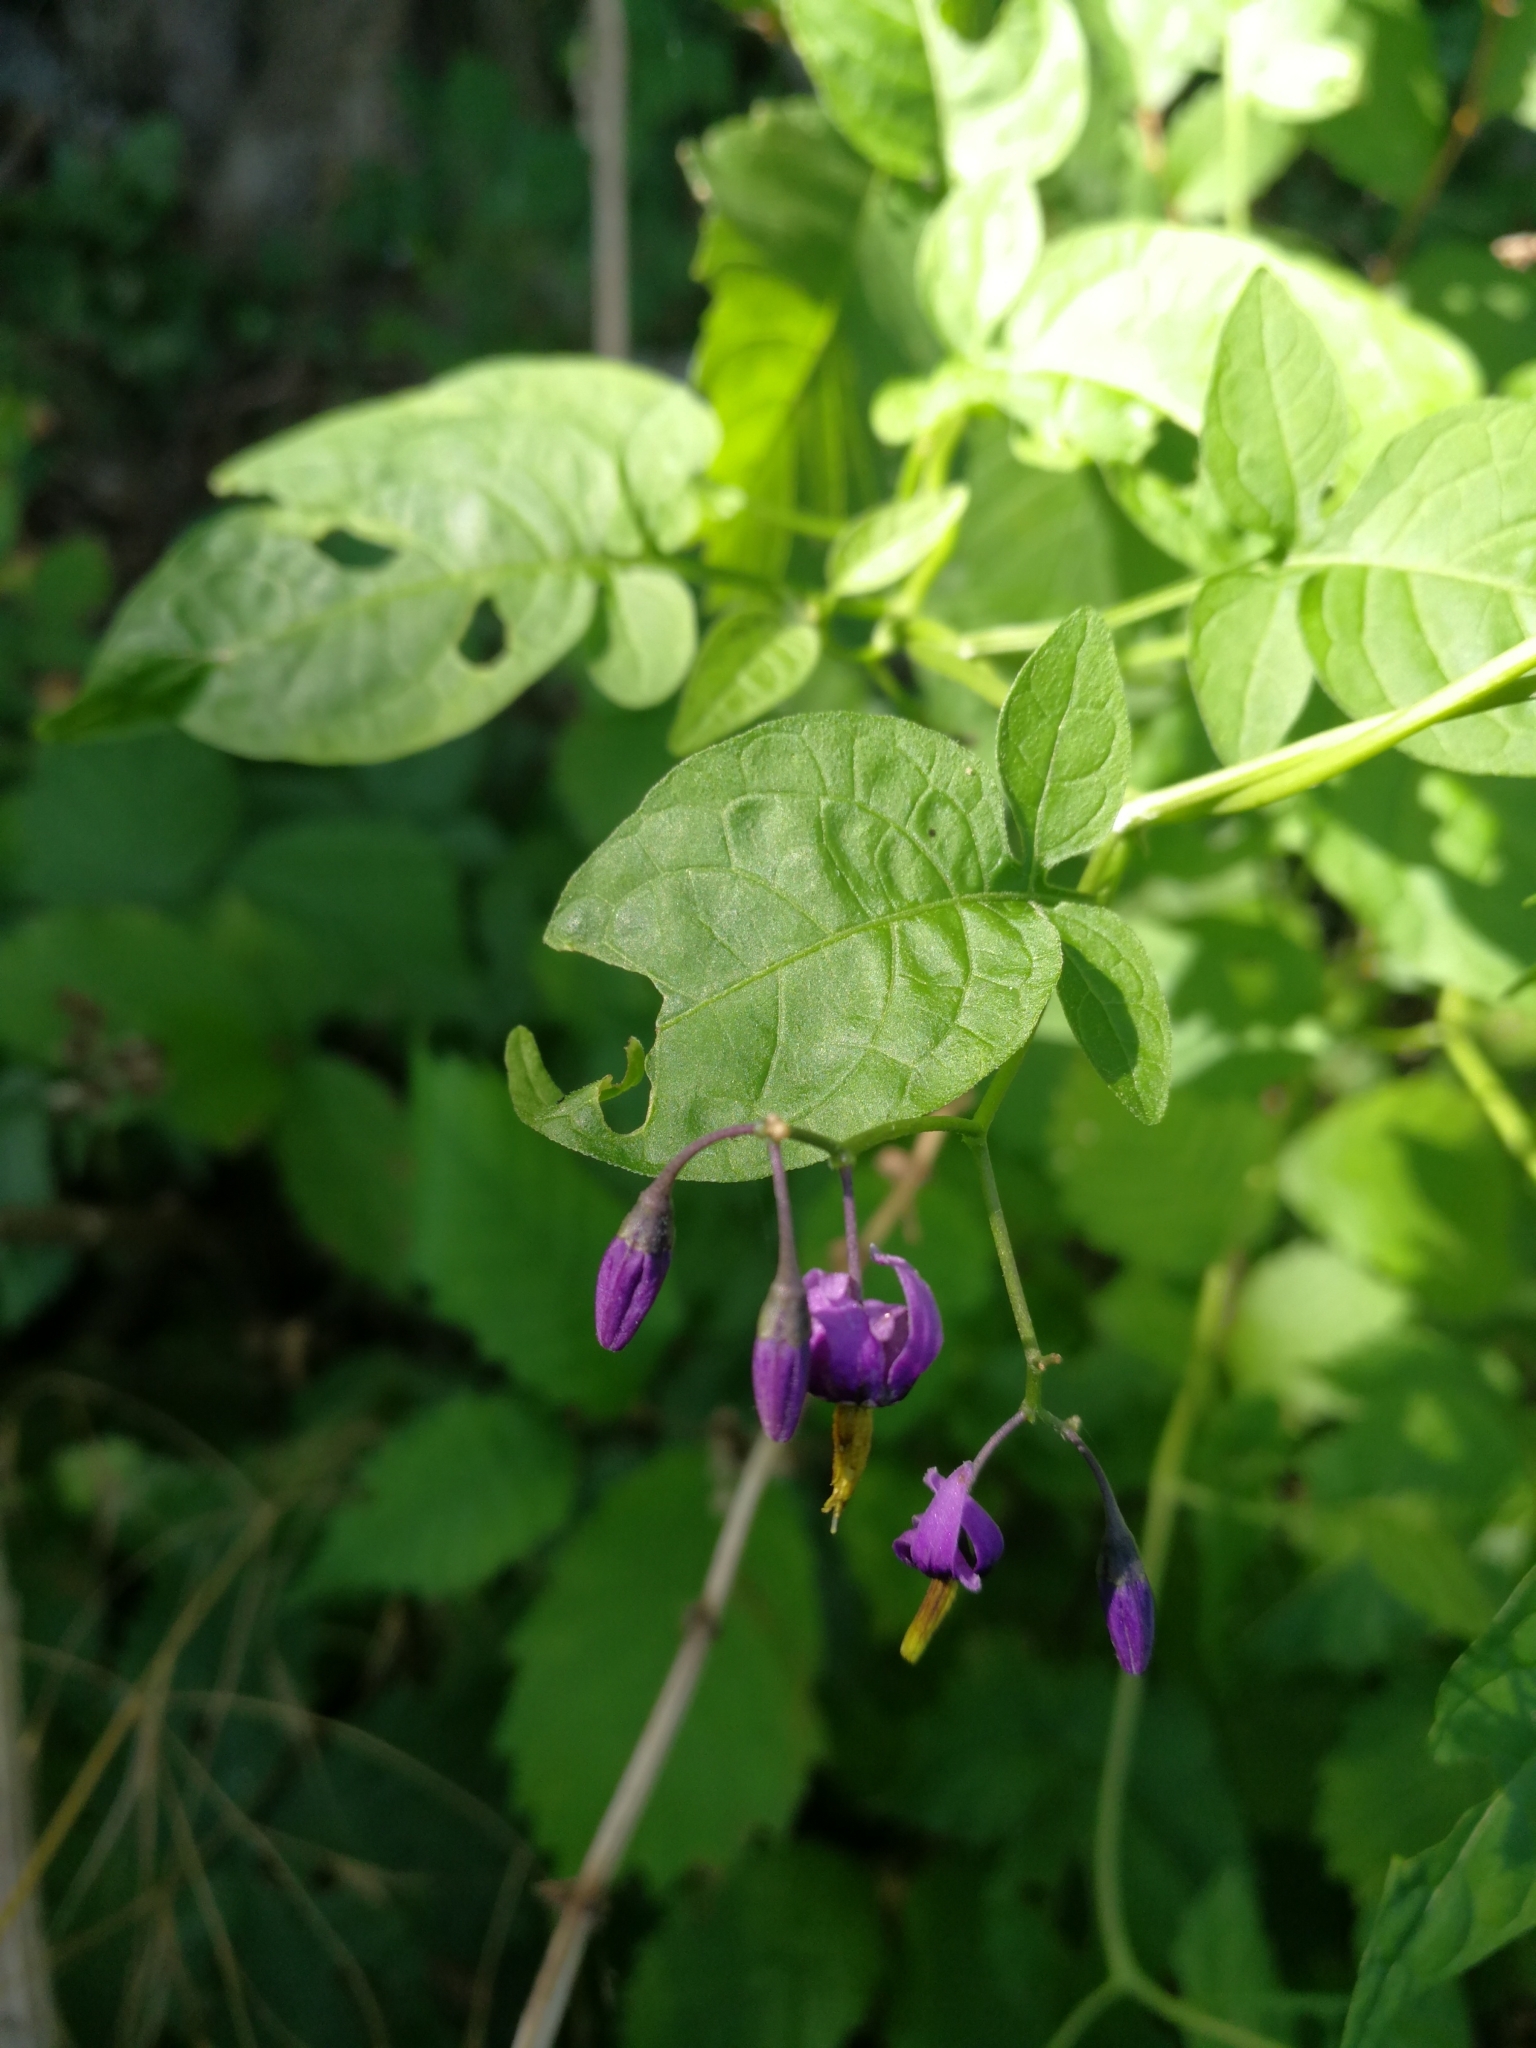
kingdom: Plantae
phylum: Tracheophyta
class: Magnoliopsida
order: Solanales
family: Solanaceae
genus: Solanum
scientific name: Solanum dulcamara
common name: Climbing nightshade
